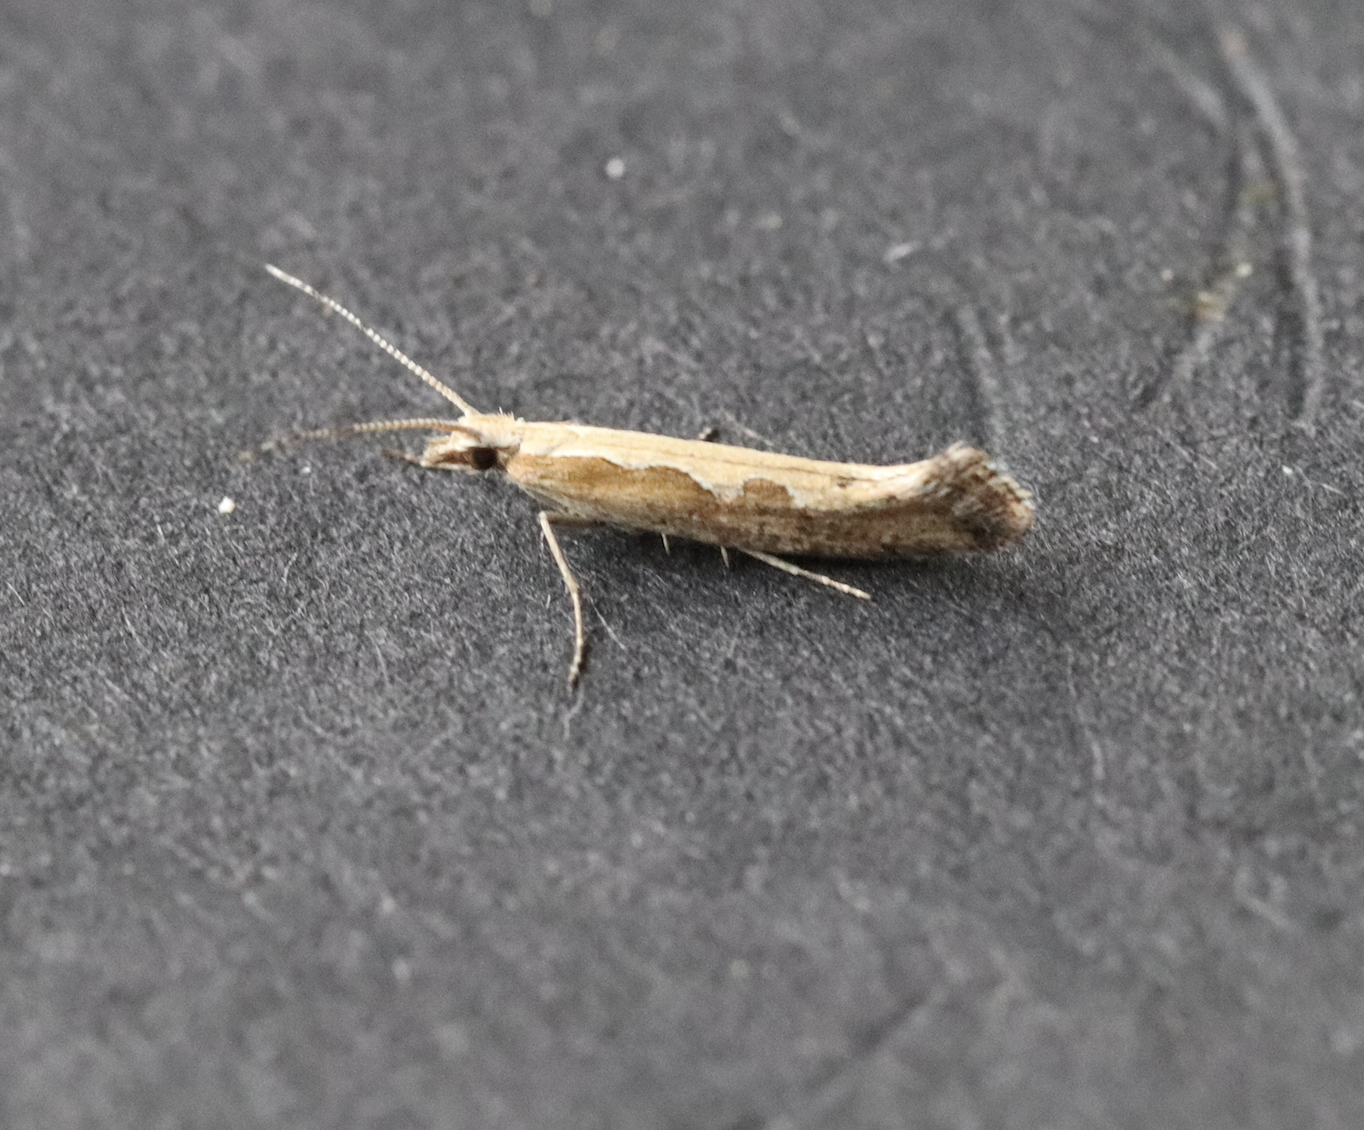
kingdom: Animalia
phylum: Arthropoda
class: Insecta
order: Lepidoptera
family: Plutellidae
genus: Plutella
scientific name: Plutella xylostella
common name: Diamond-back moth
